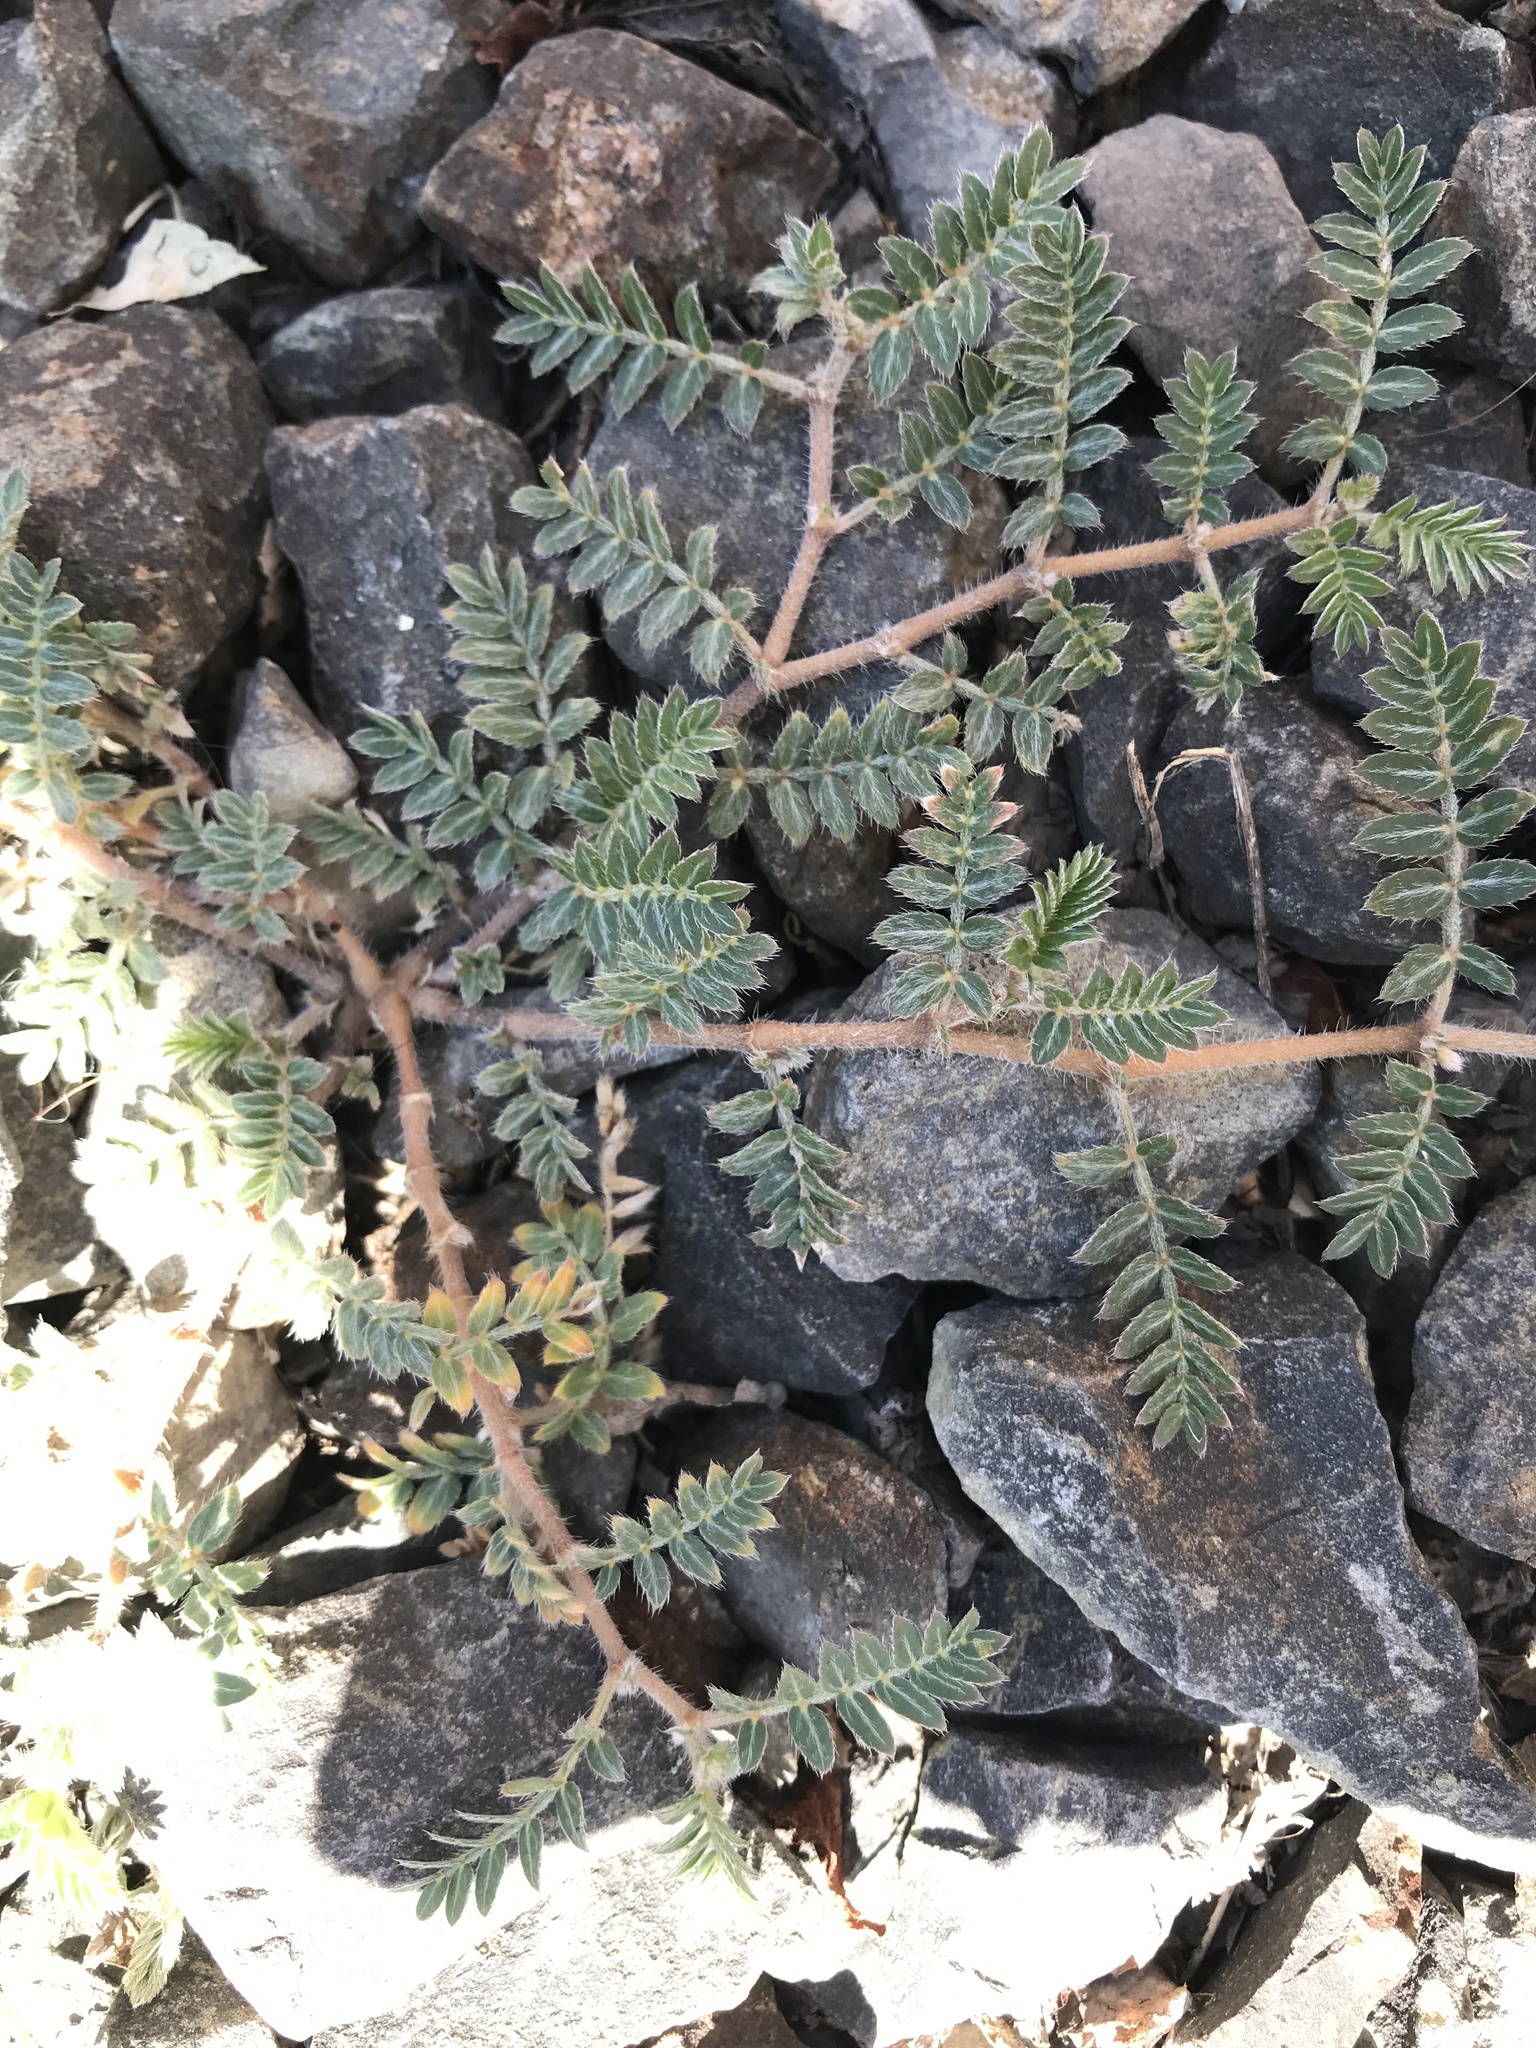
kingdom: Plantae
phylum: Tracheophyta
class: Magnoliopsida
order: Zygophyllales
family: Zygophyllaceae
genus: Tribulus
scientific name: Tribulus terrestris
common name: Puncturevine
